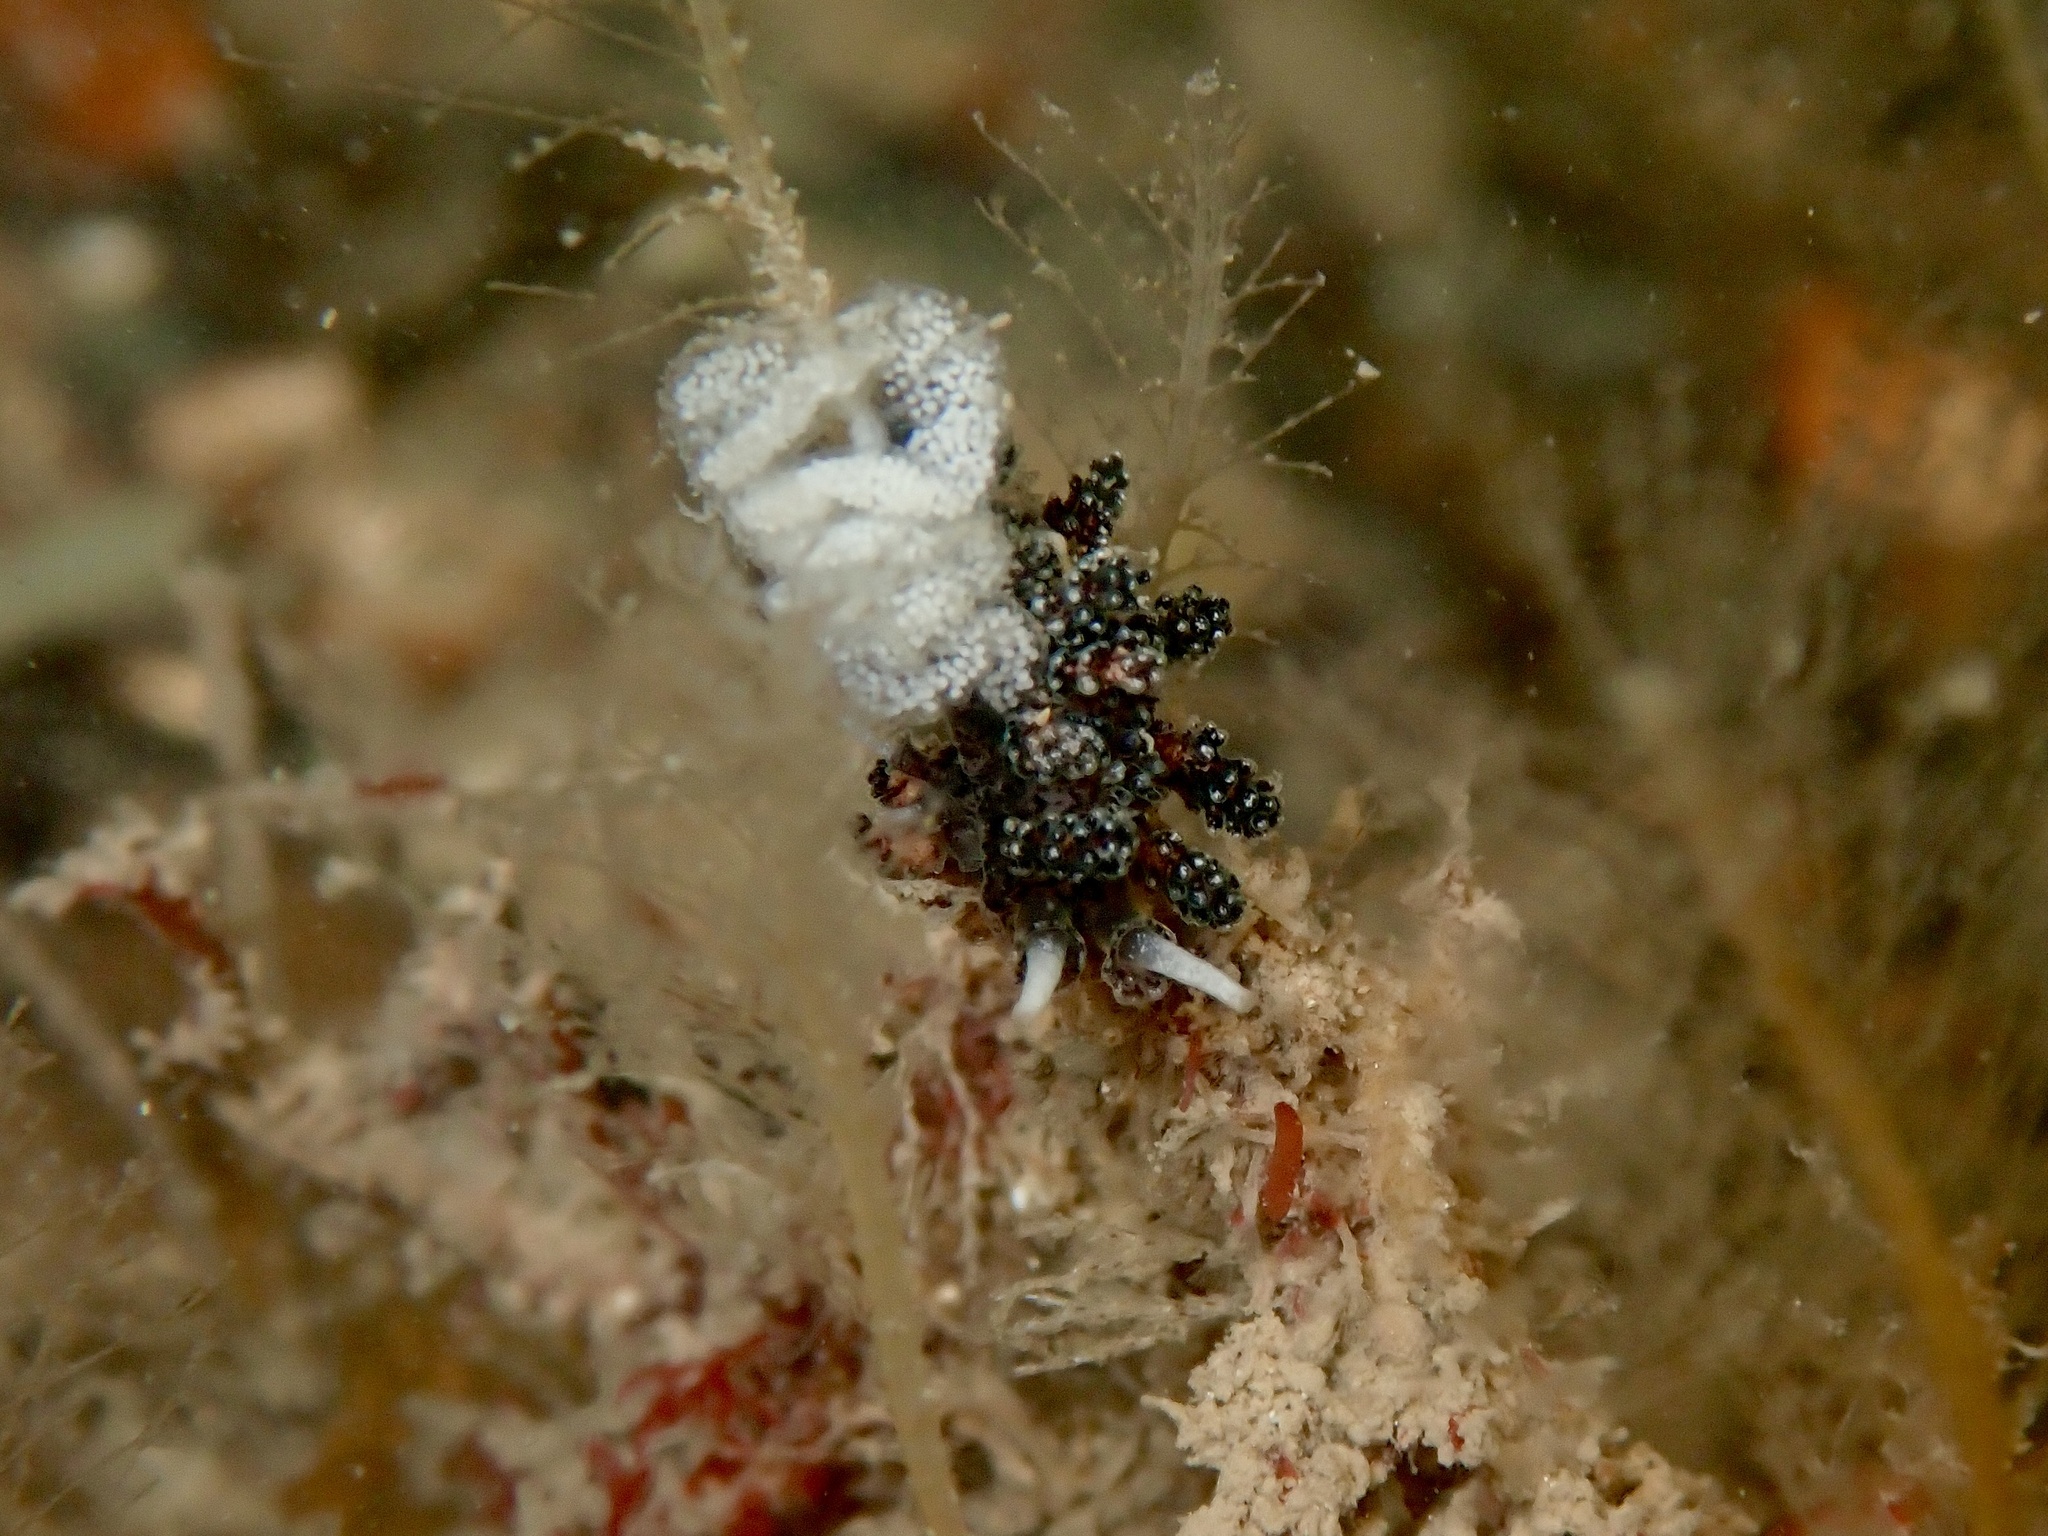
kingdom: Animalia
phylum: Mollusca
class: Gastropoda
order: Nudibranchia
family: Dotidae
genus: Doto
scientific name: Doto cuspidata
